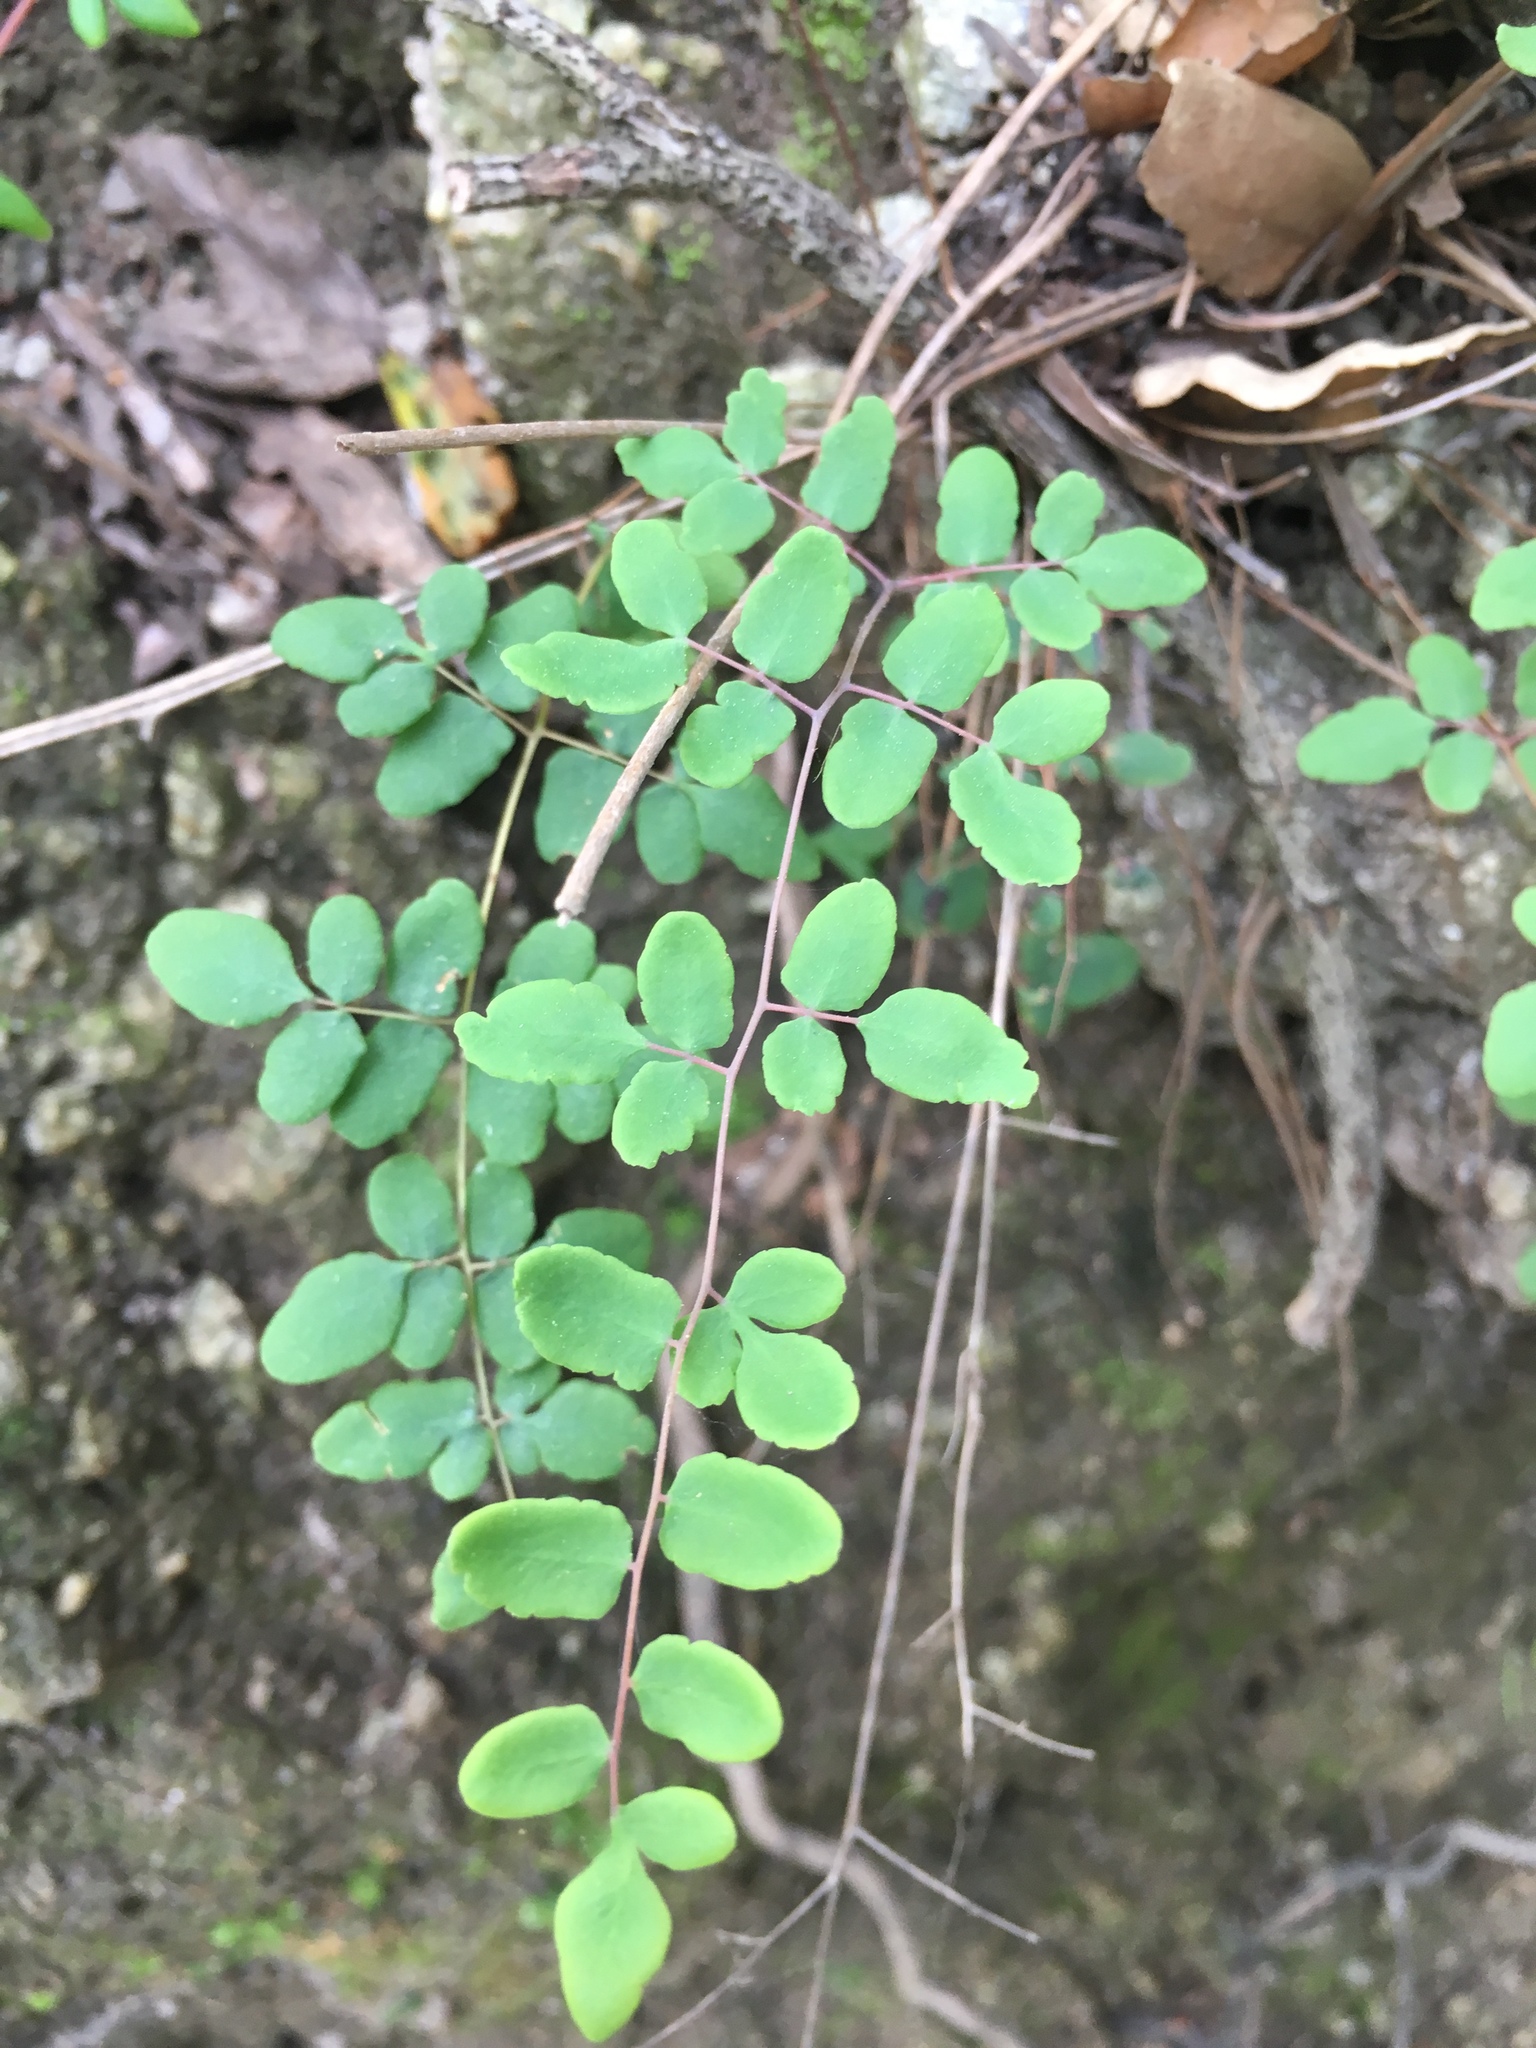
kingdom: Plantae
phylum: Tracheophyta
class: Polypodiopsida
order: Polypodiales
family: Pteridaceae
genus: Pellaea
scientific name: Pellaea andromedifolia
